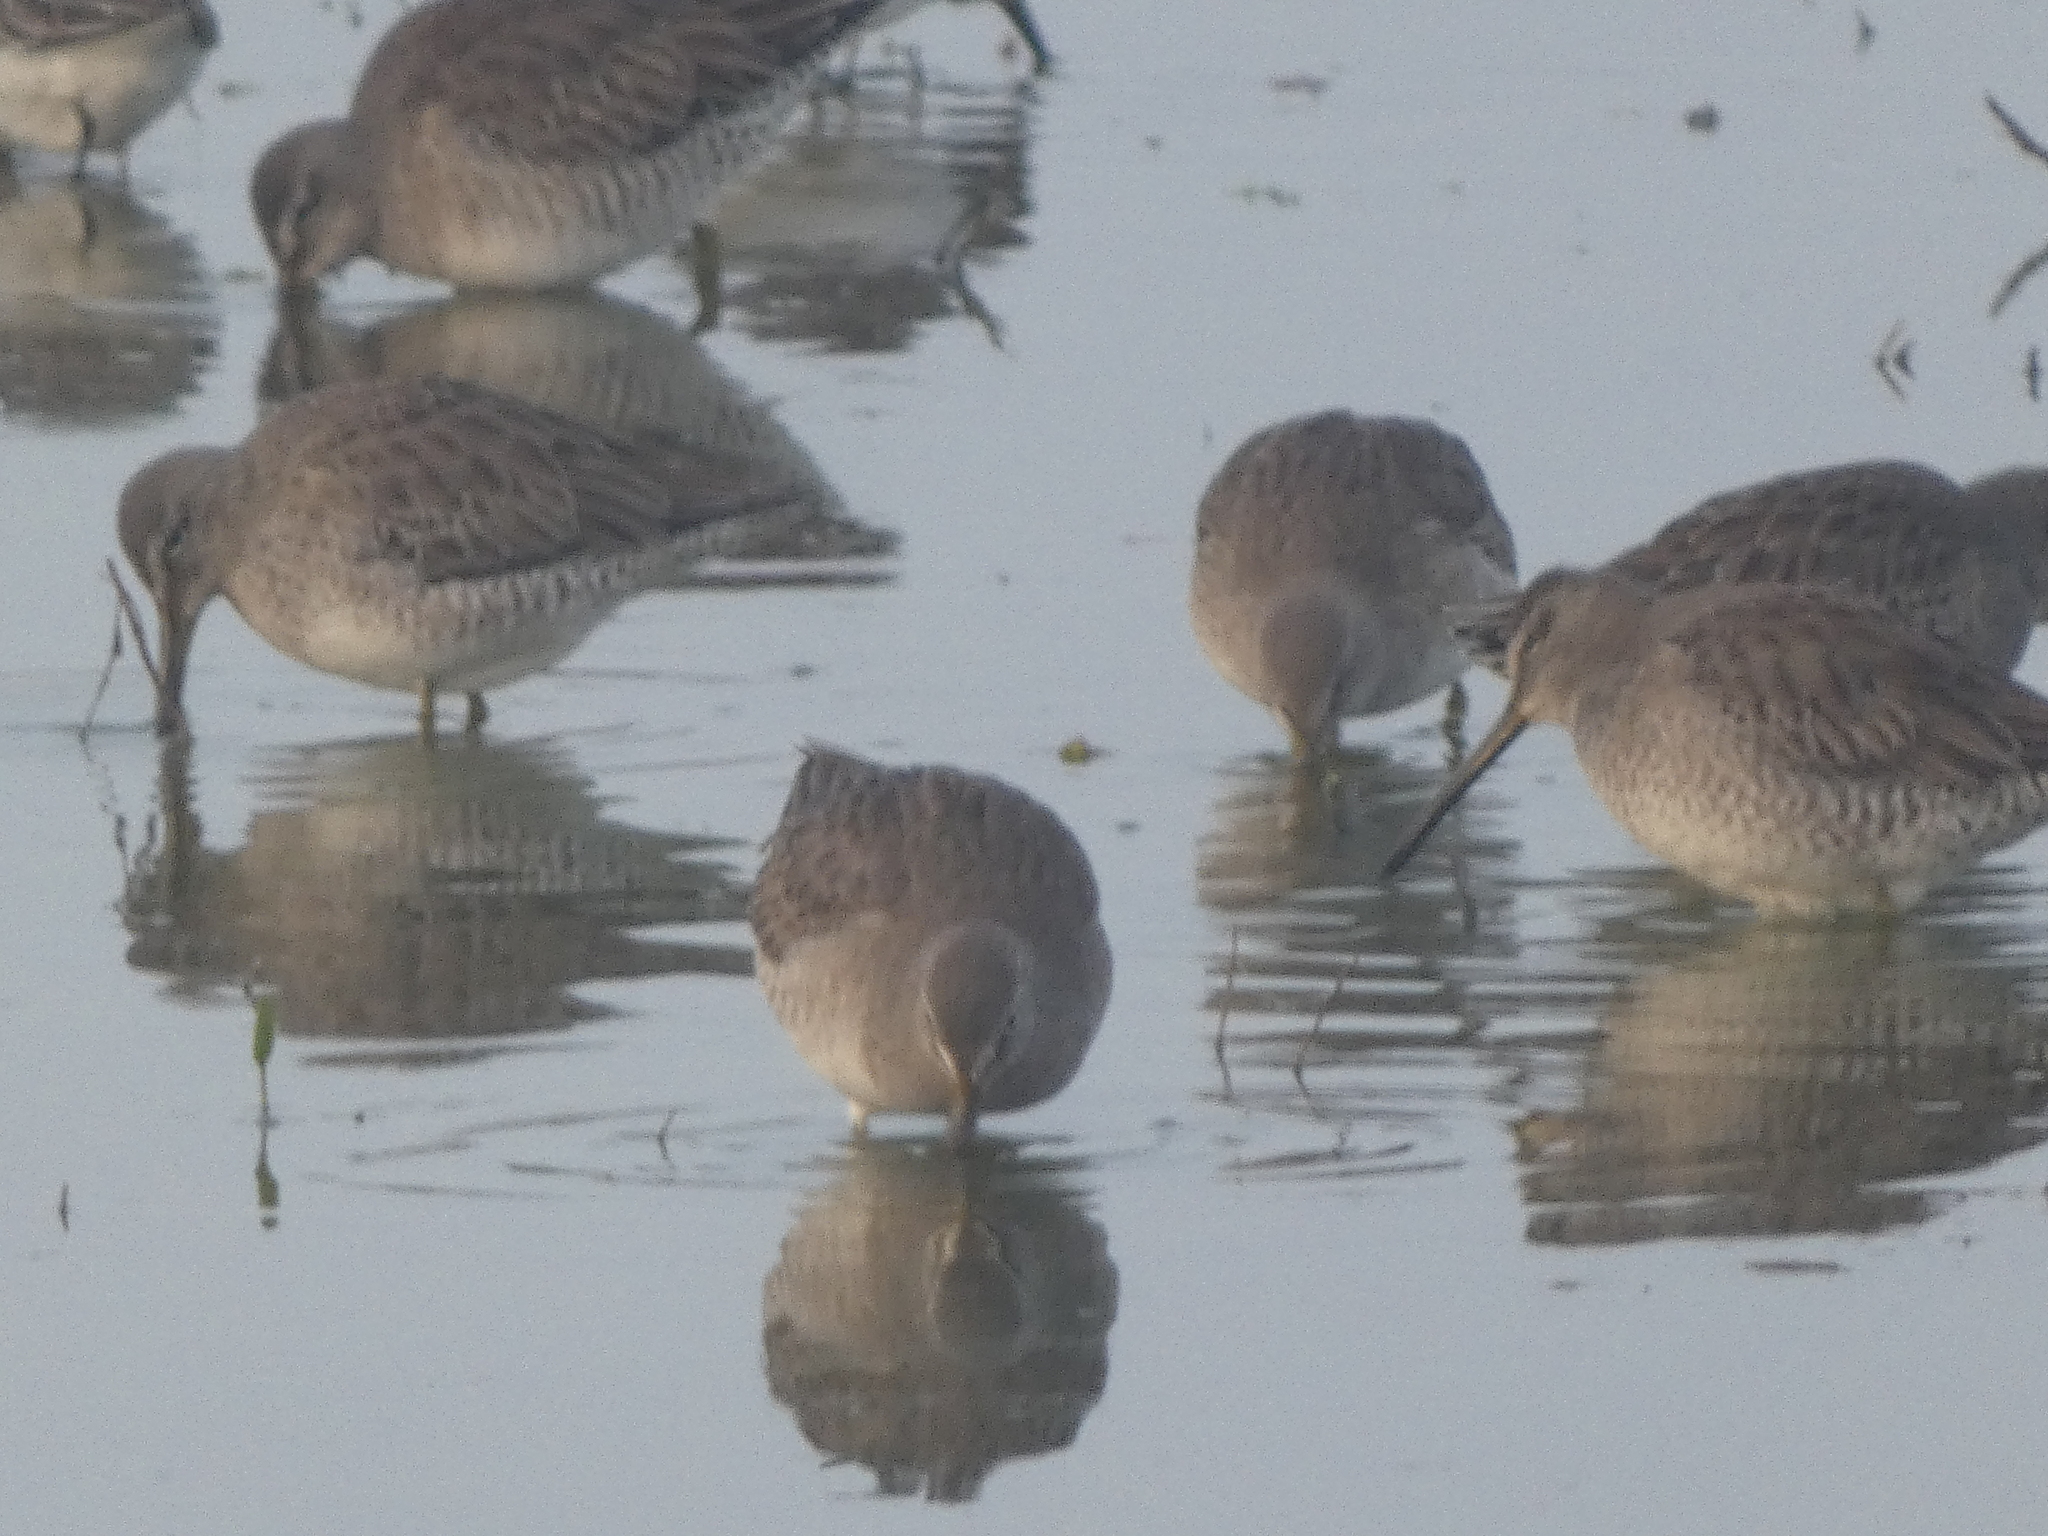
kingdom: Animalia
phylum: Chordata
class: Aves
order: Charadriiformes
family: Scolopacidae
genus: Limnodromus
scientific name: Limnodromus scolopaceus
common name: Long-billed dowitcher
